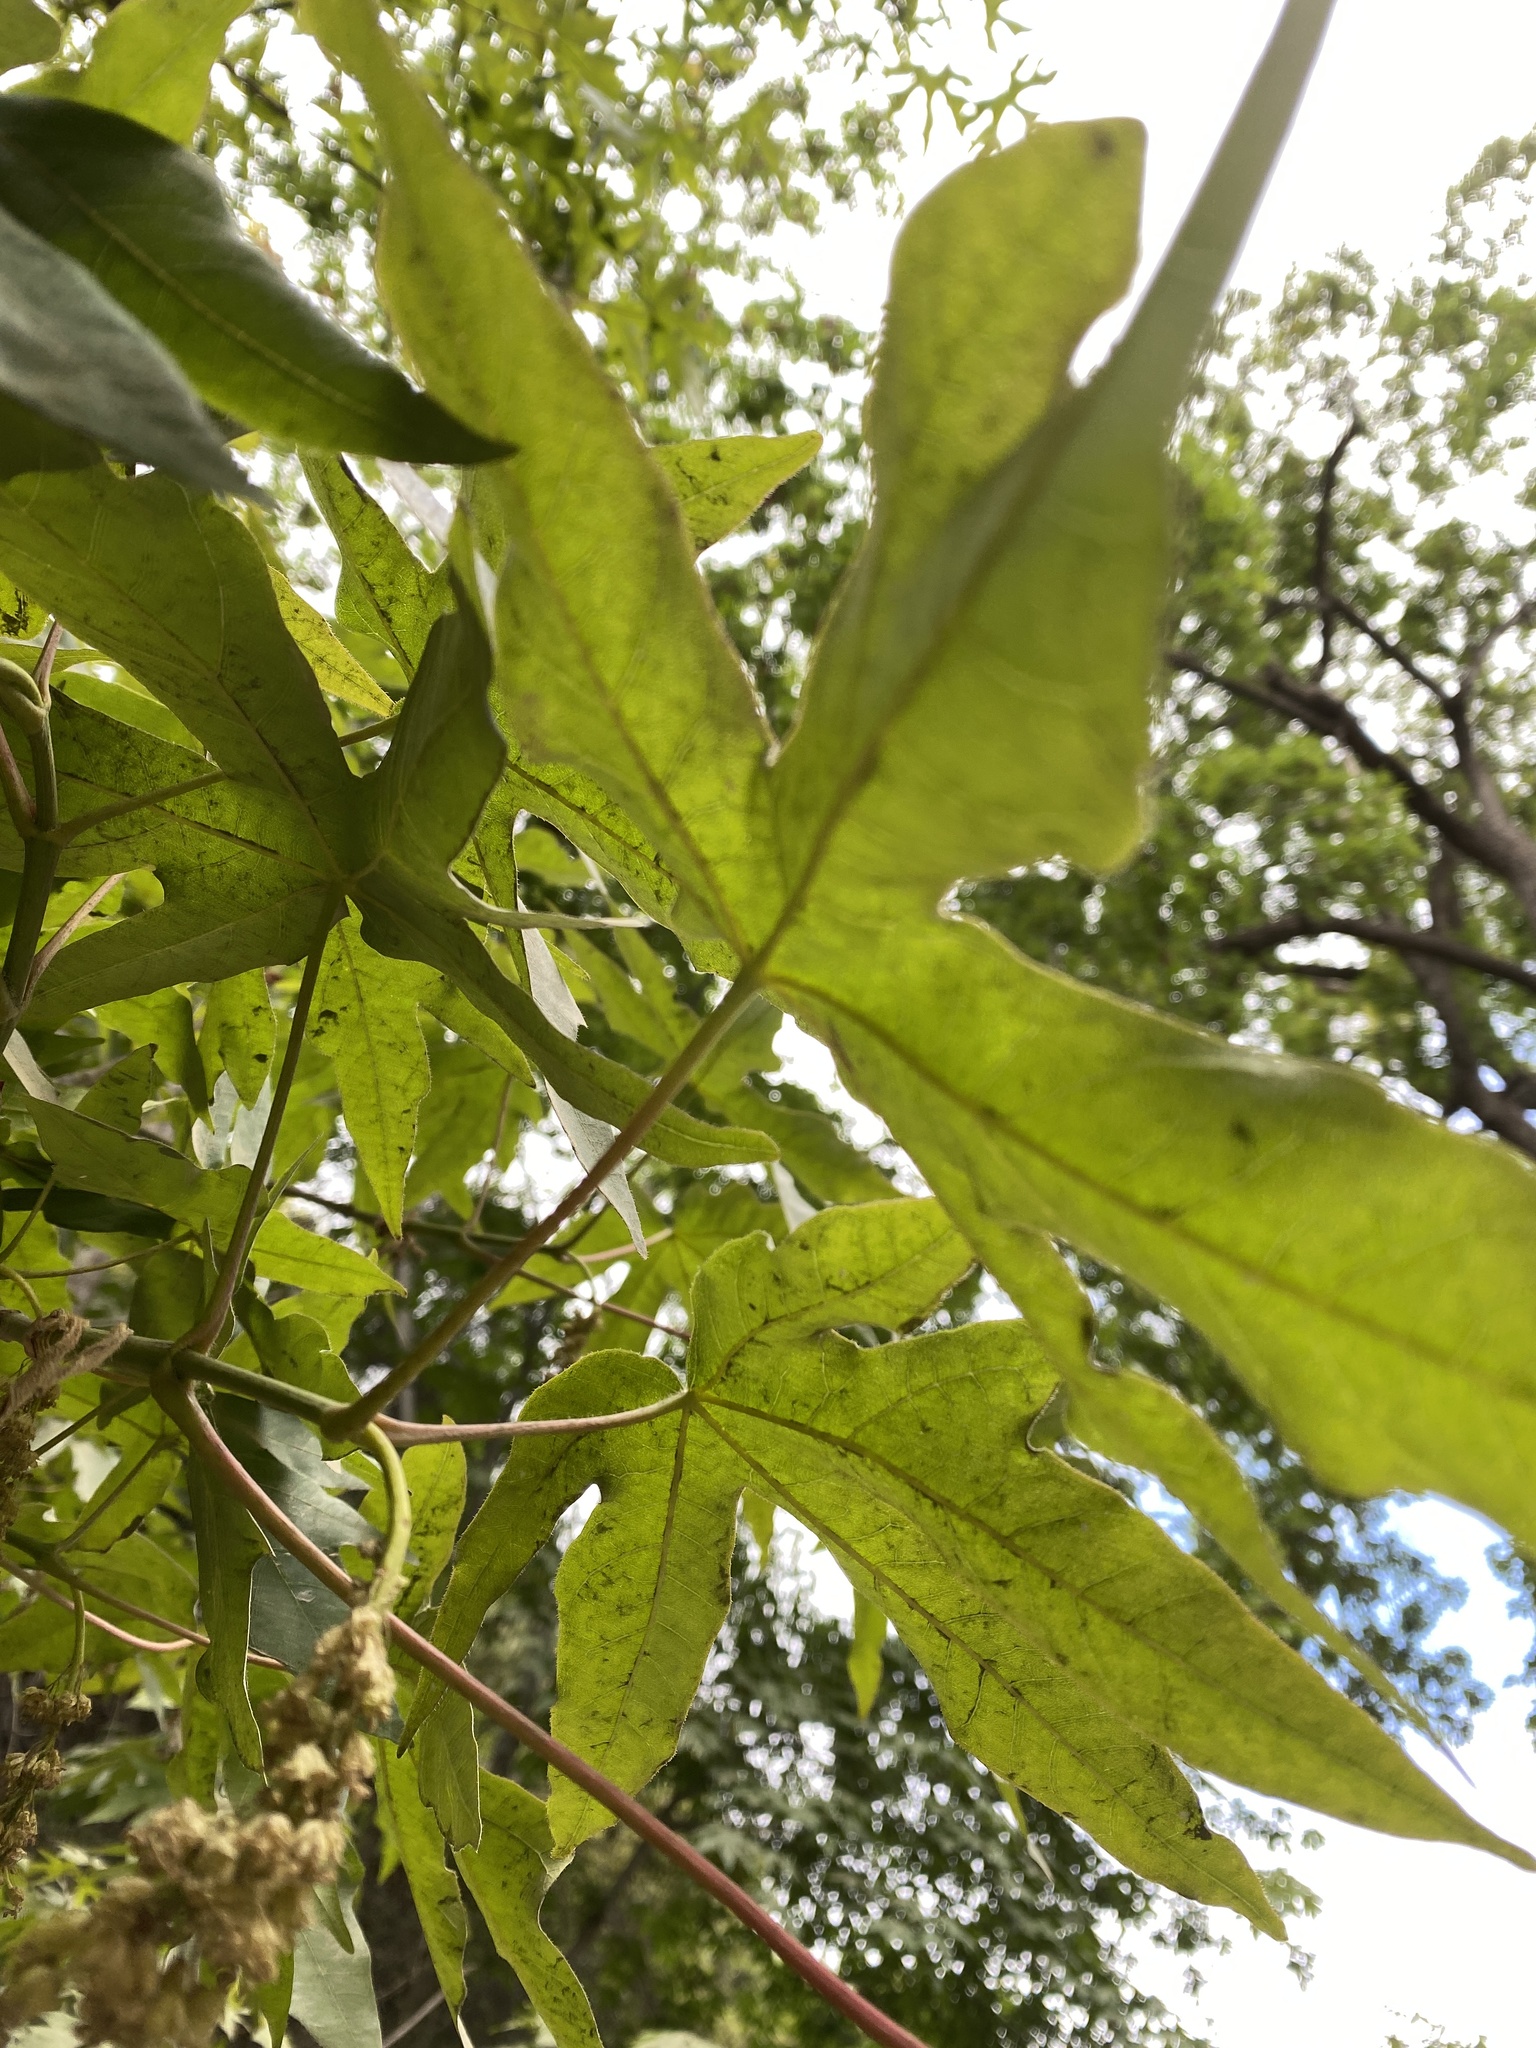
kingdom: Plantae
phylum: Tracheophyta
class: Magnoliopsida
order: Sapindales
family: Sapindaceae
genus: Acer
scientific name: Acer macrophyllum
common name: Oregon maple
